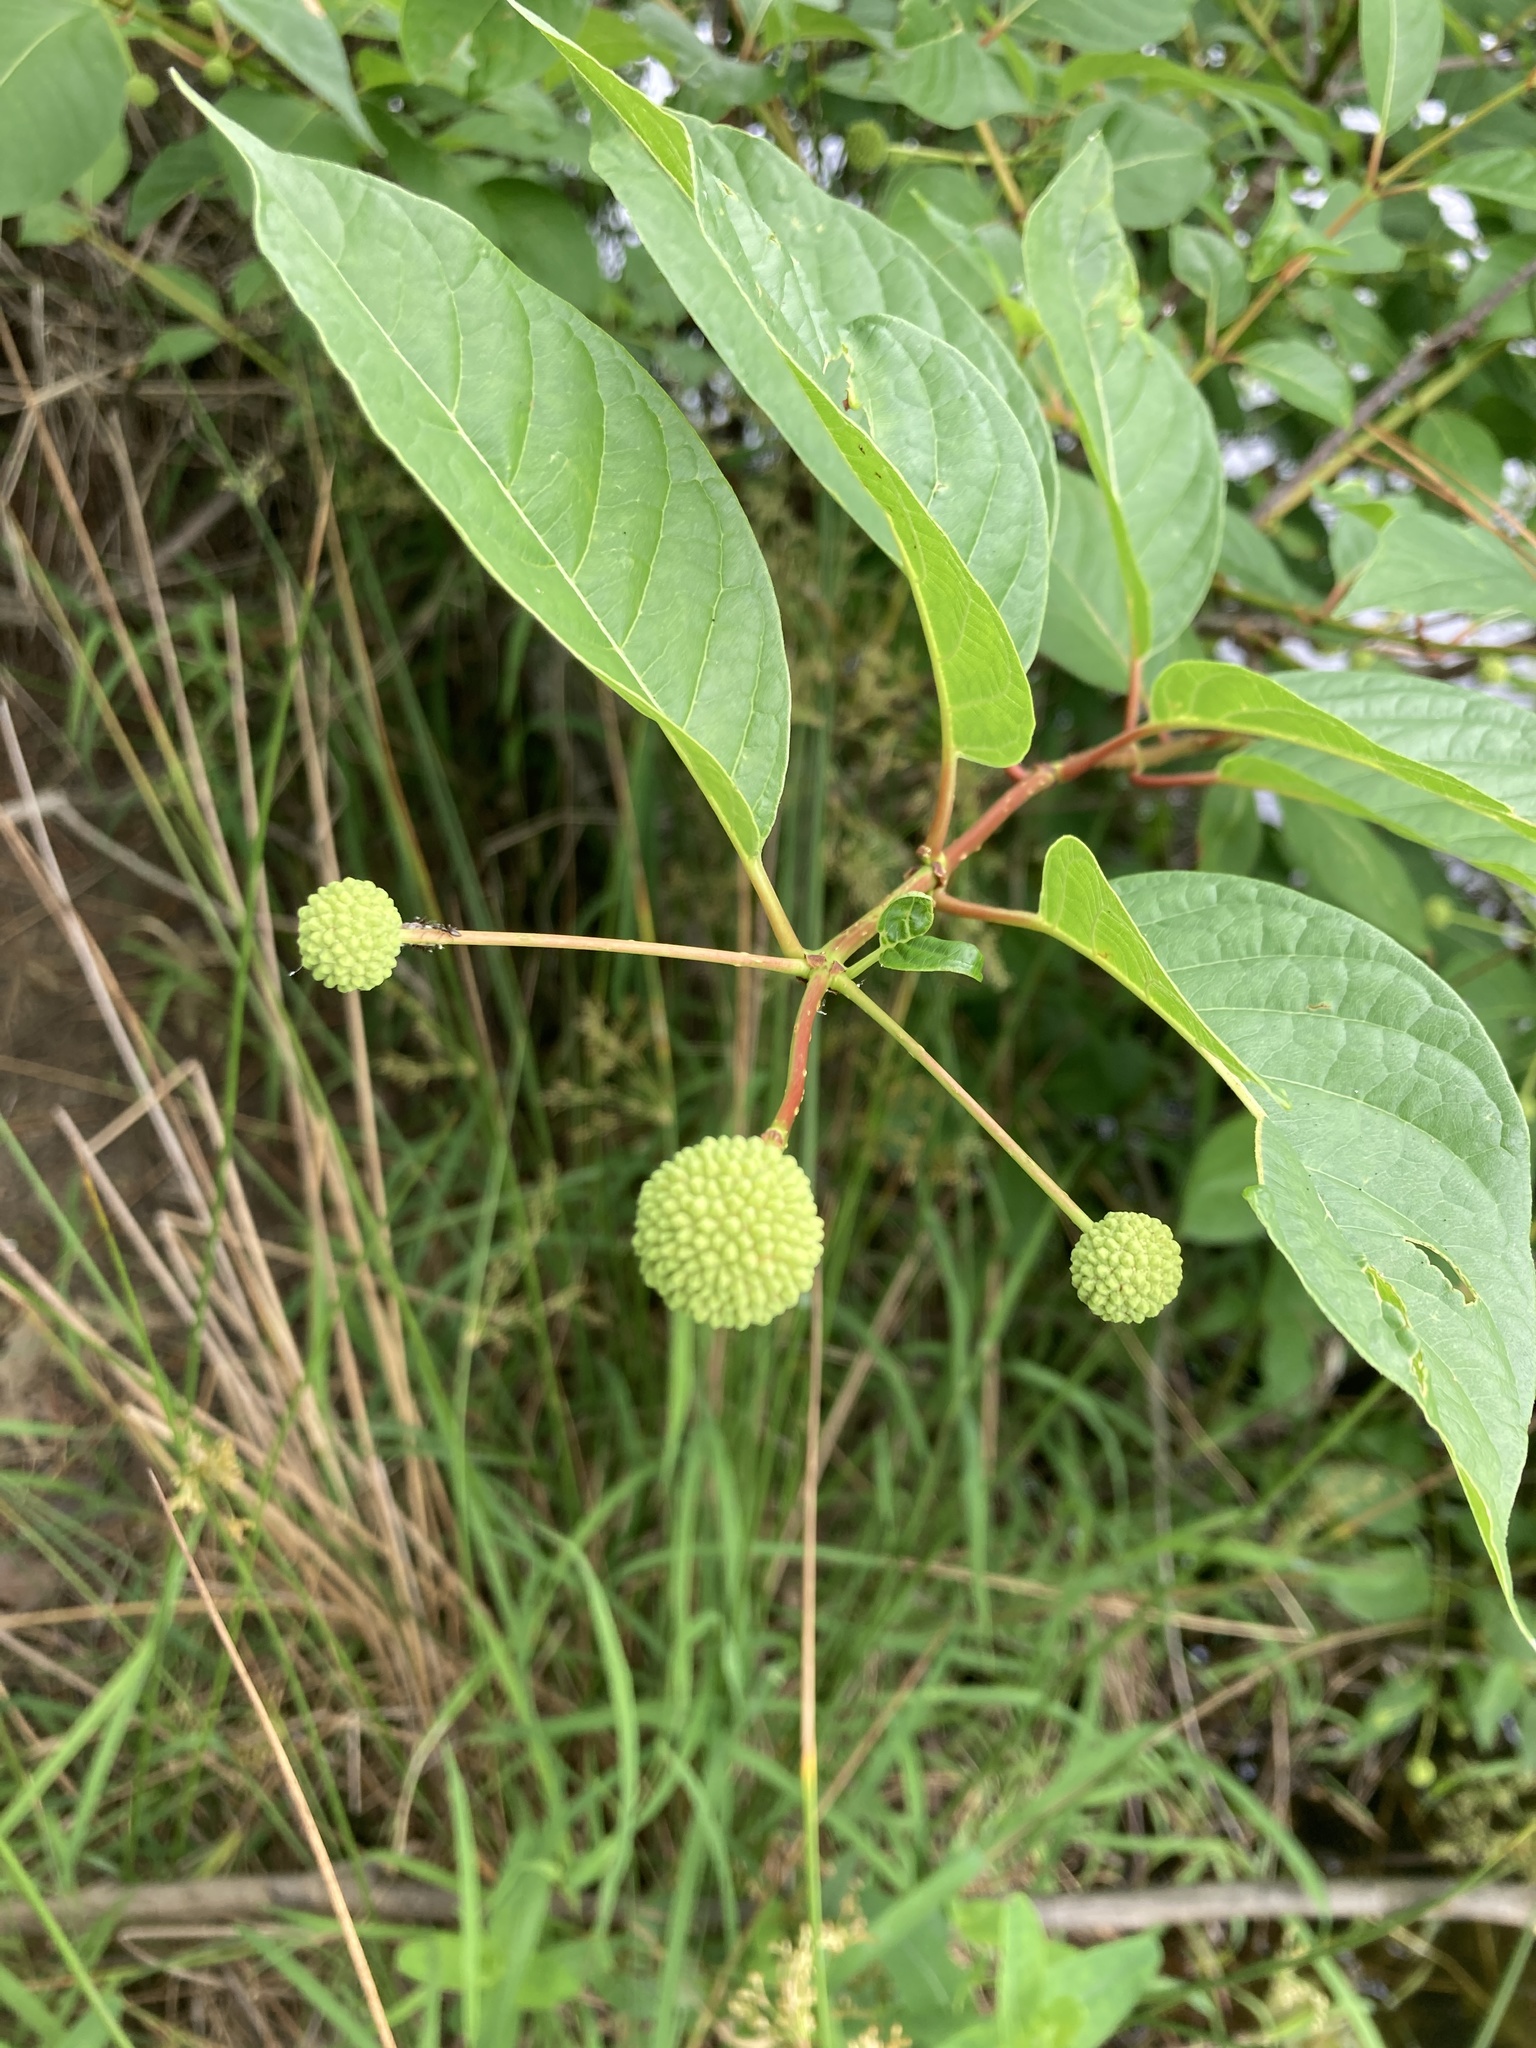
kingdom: Plantae
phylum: Tracheophyta
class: Magnoliopsida
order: Gentianales
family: Rubiaceae
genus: Cephalanthus
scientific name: Cephalanthus occidentalis
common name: Button-willow
